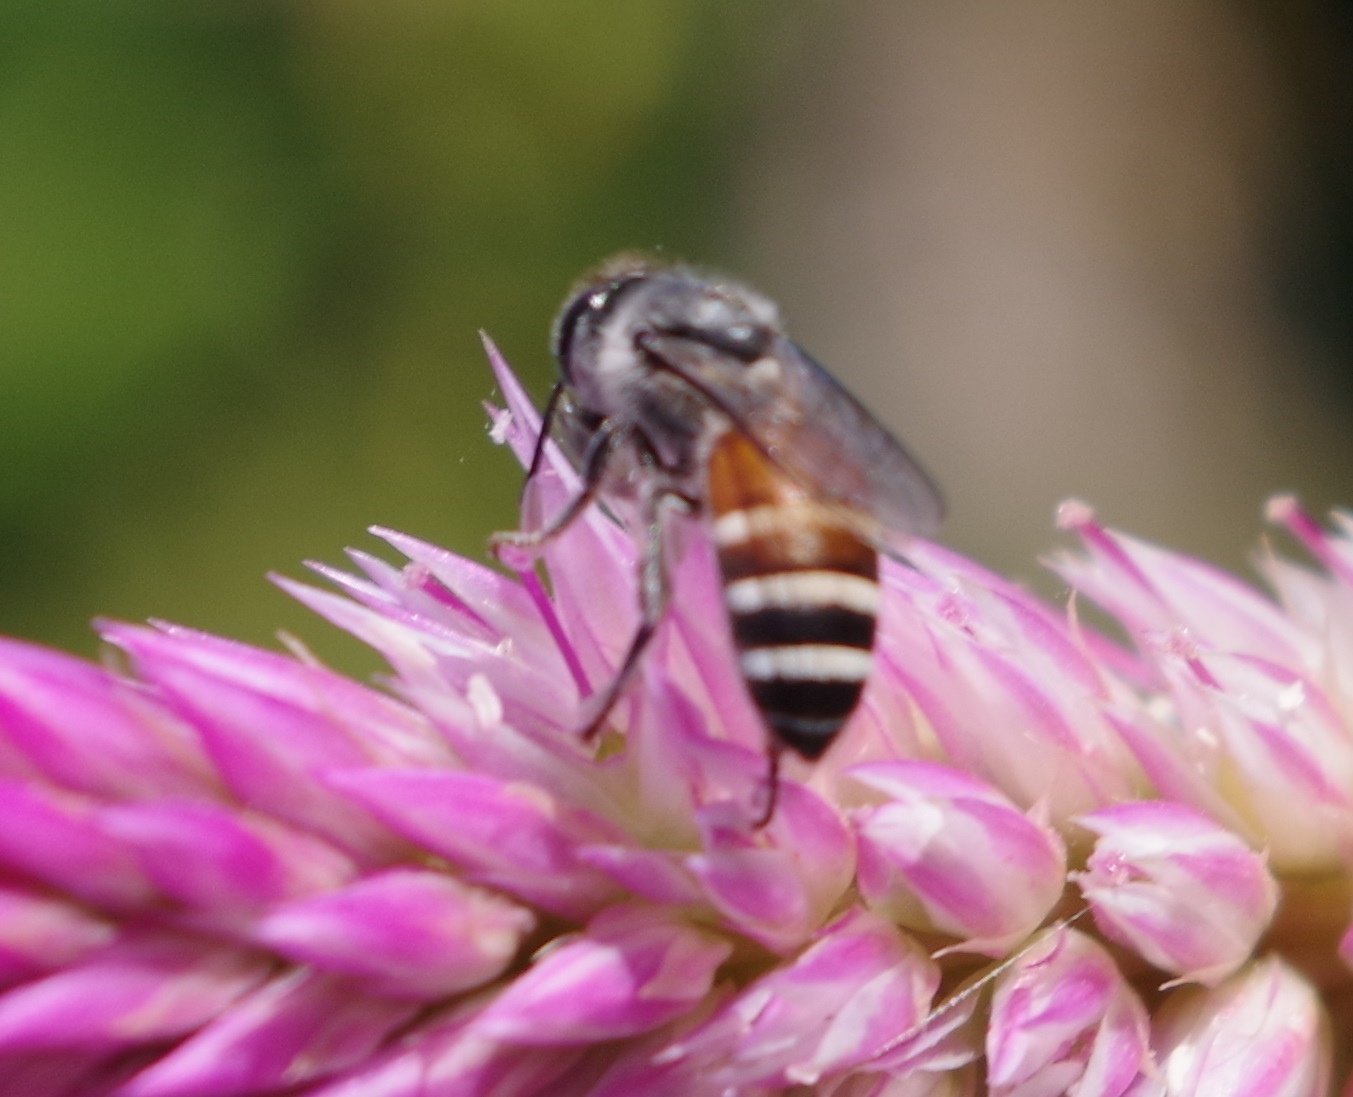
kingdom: Animalia
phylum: Arthropoda
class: Insecta
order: Hymenoptera
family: Apidae
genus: Apis
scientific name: Apis florea
